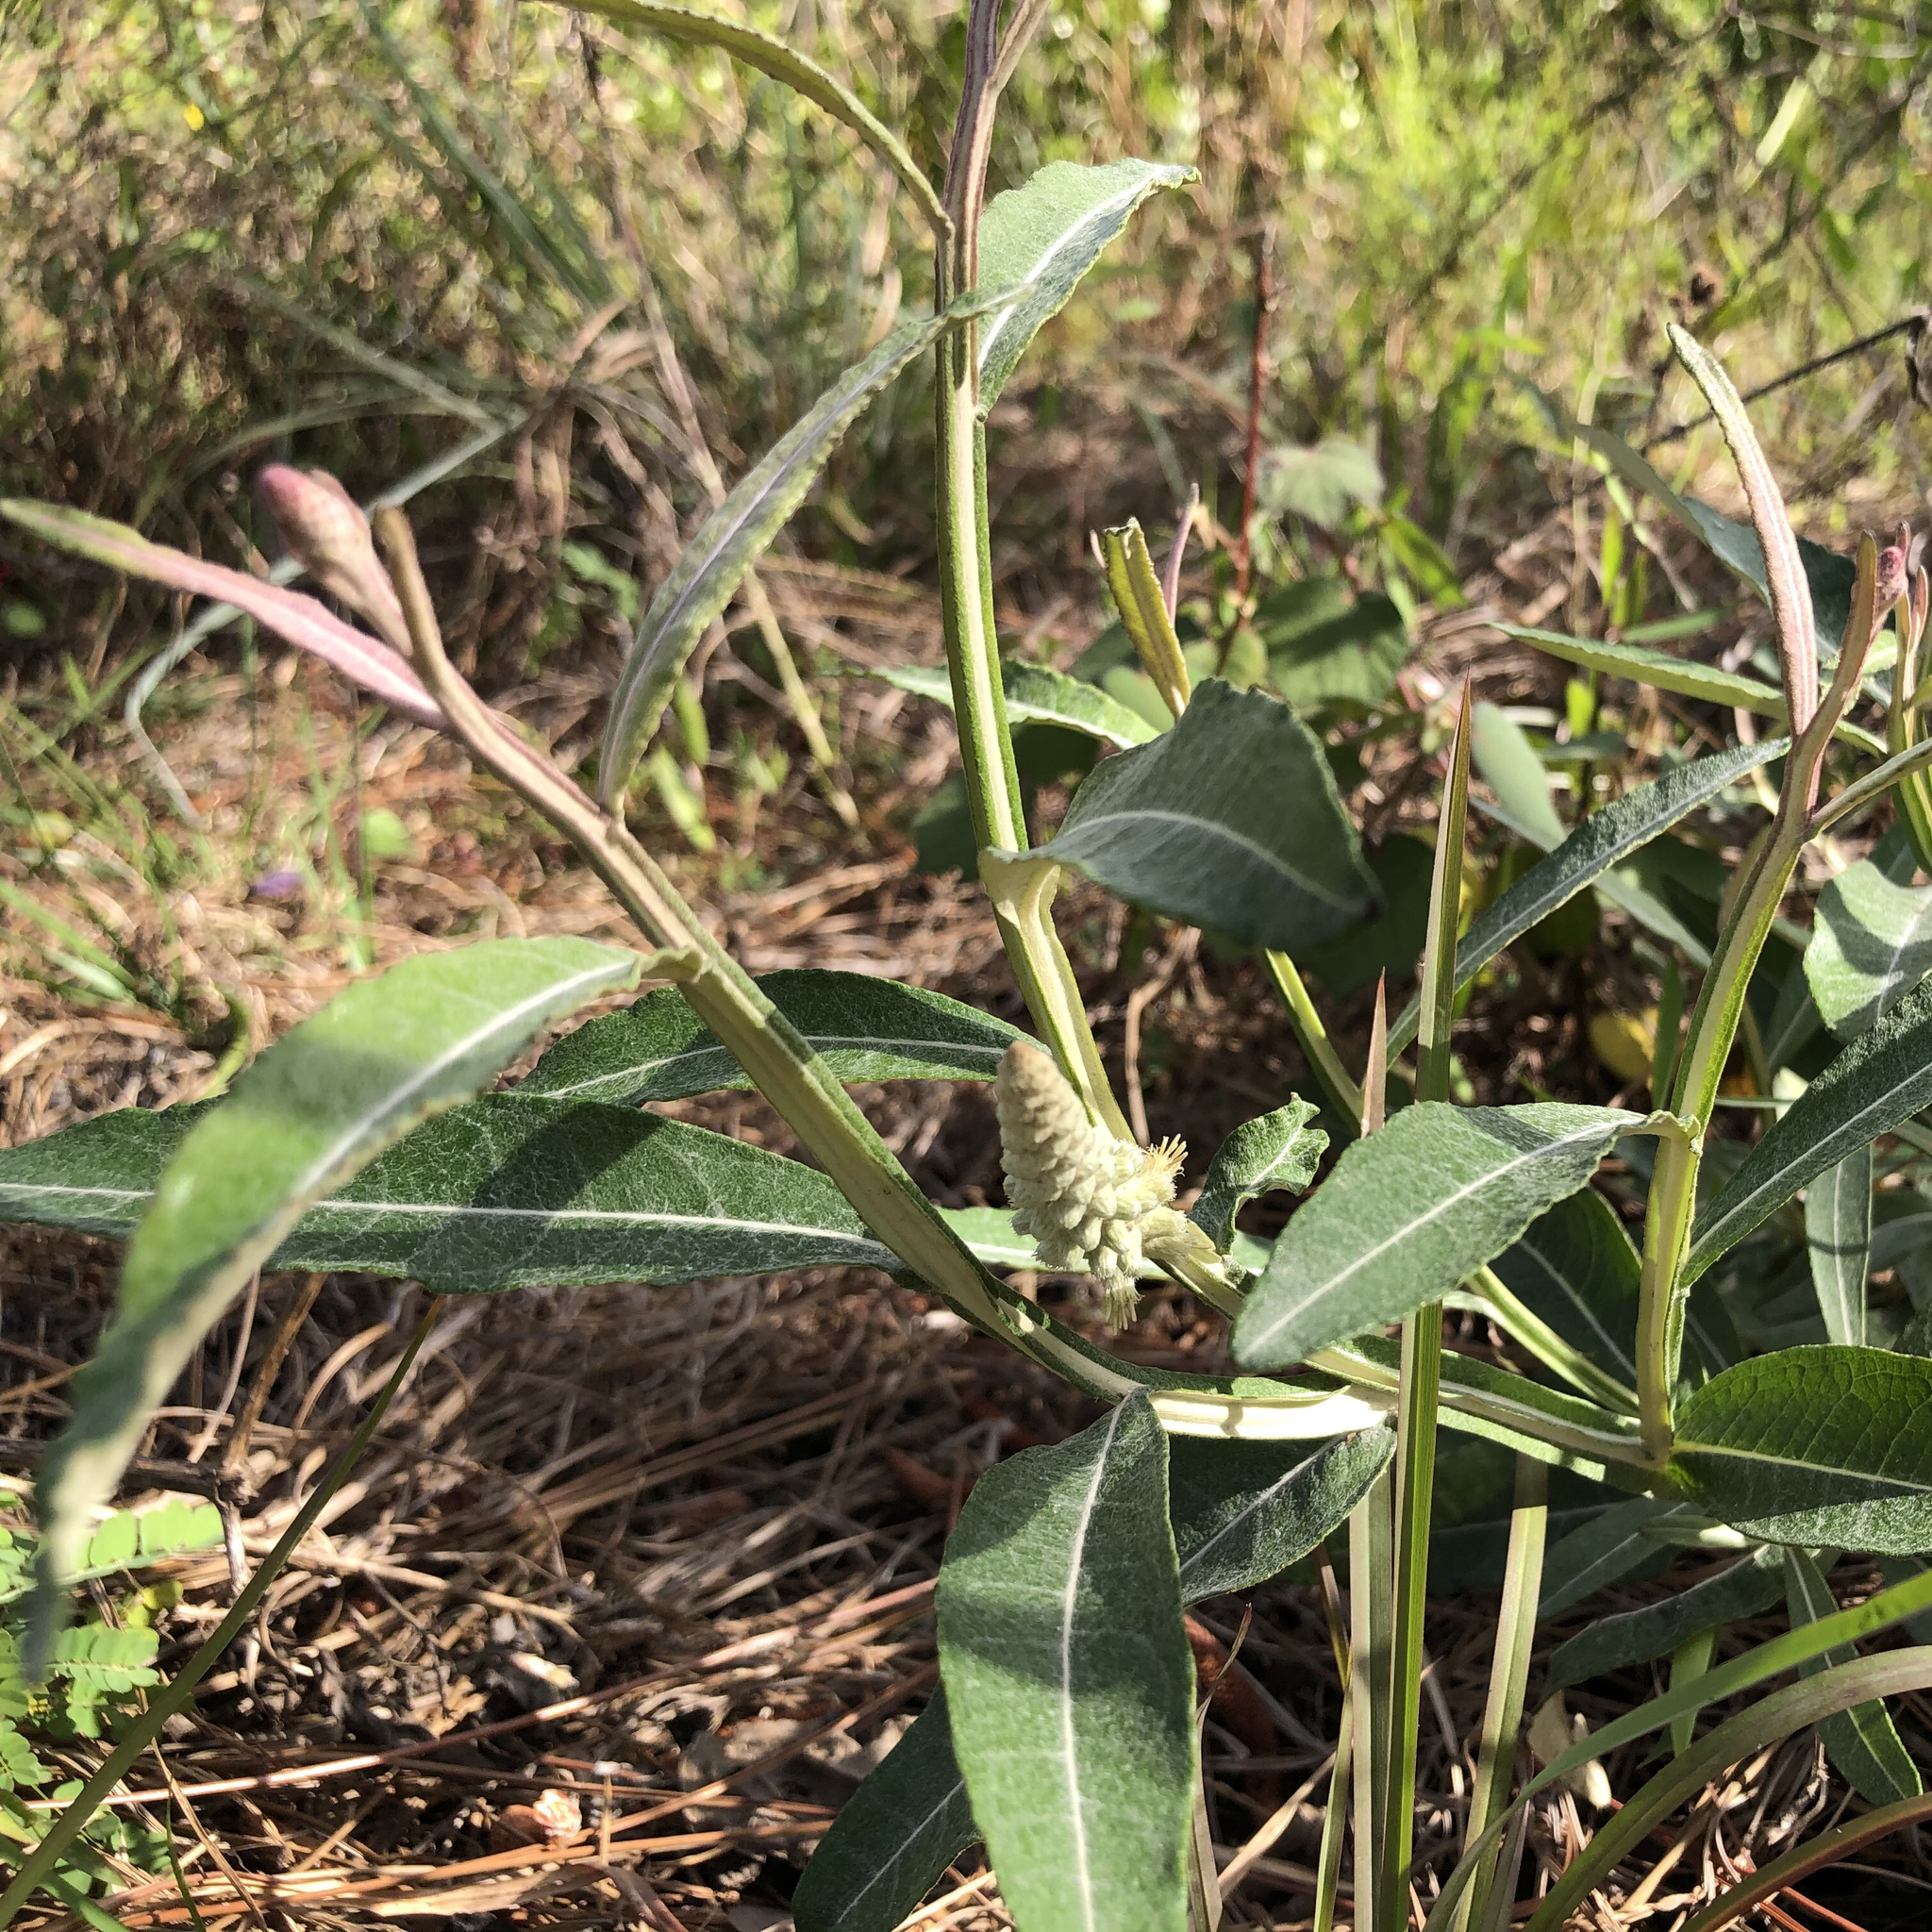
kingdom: Plantae
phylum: Tracheophyta
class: Magnoliopsida
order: Asterales
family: Asteraceae
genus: Pterocaulon
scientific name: Pterocaulon pycnostachyum
